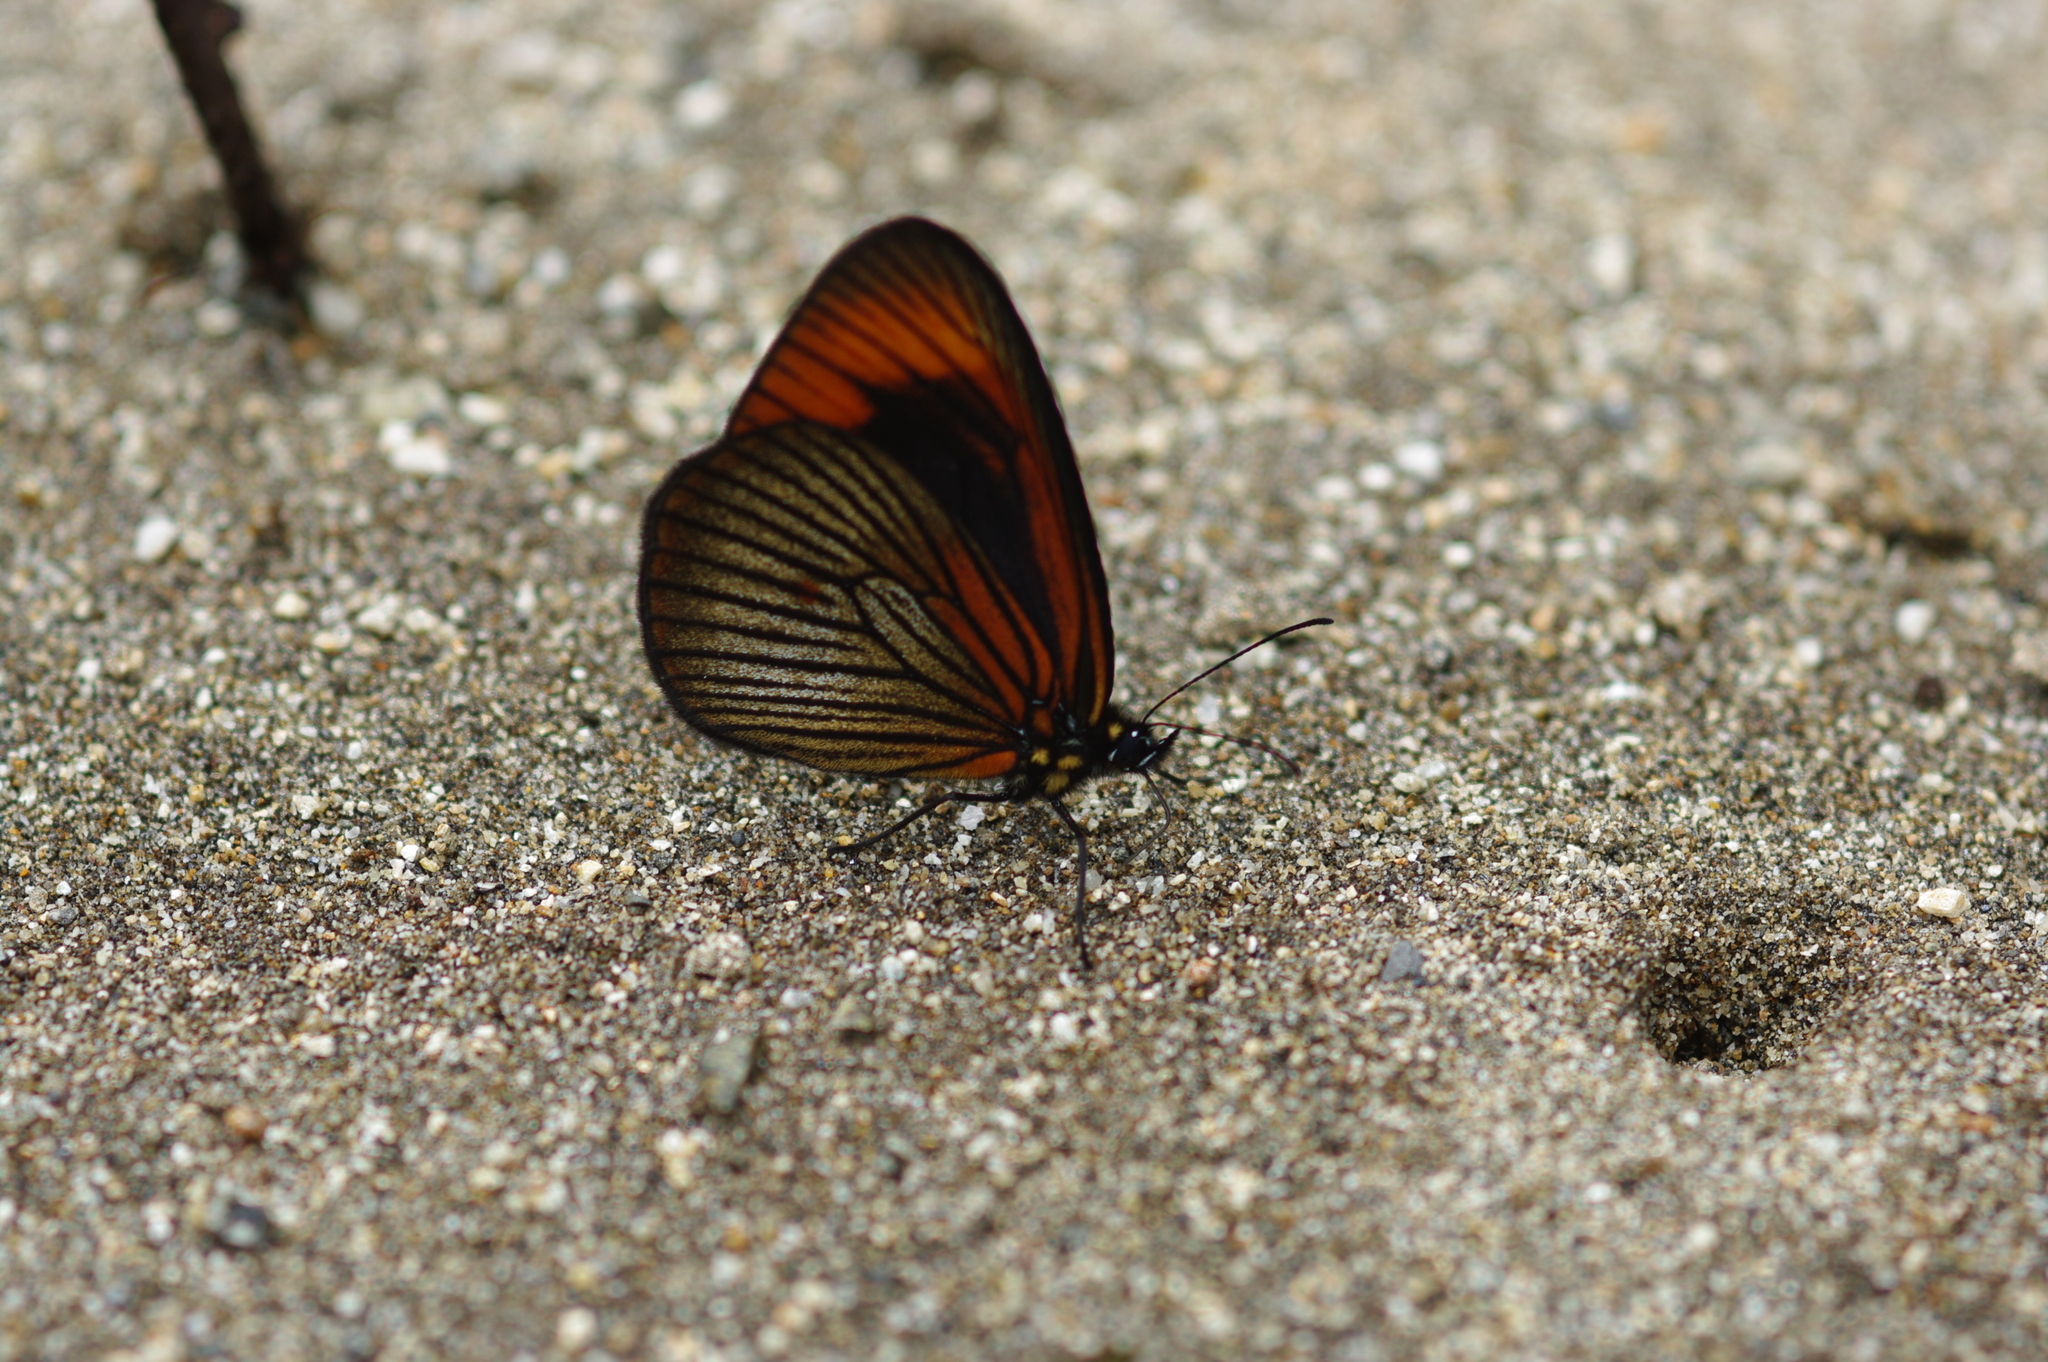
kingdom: Animalia
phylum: Arthropoda
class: Insecta
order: Lepidoptera
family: Nymphalidae
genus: Lymanopoda
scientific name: Lymanopoda acraeida
